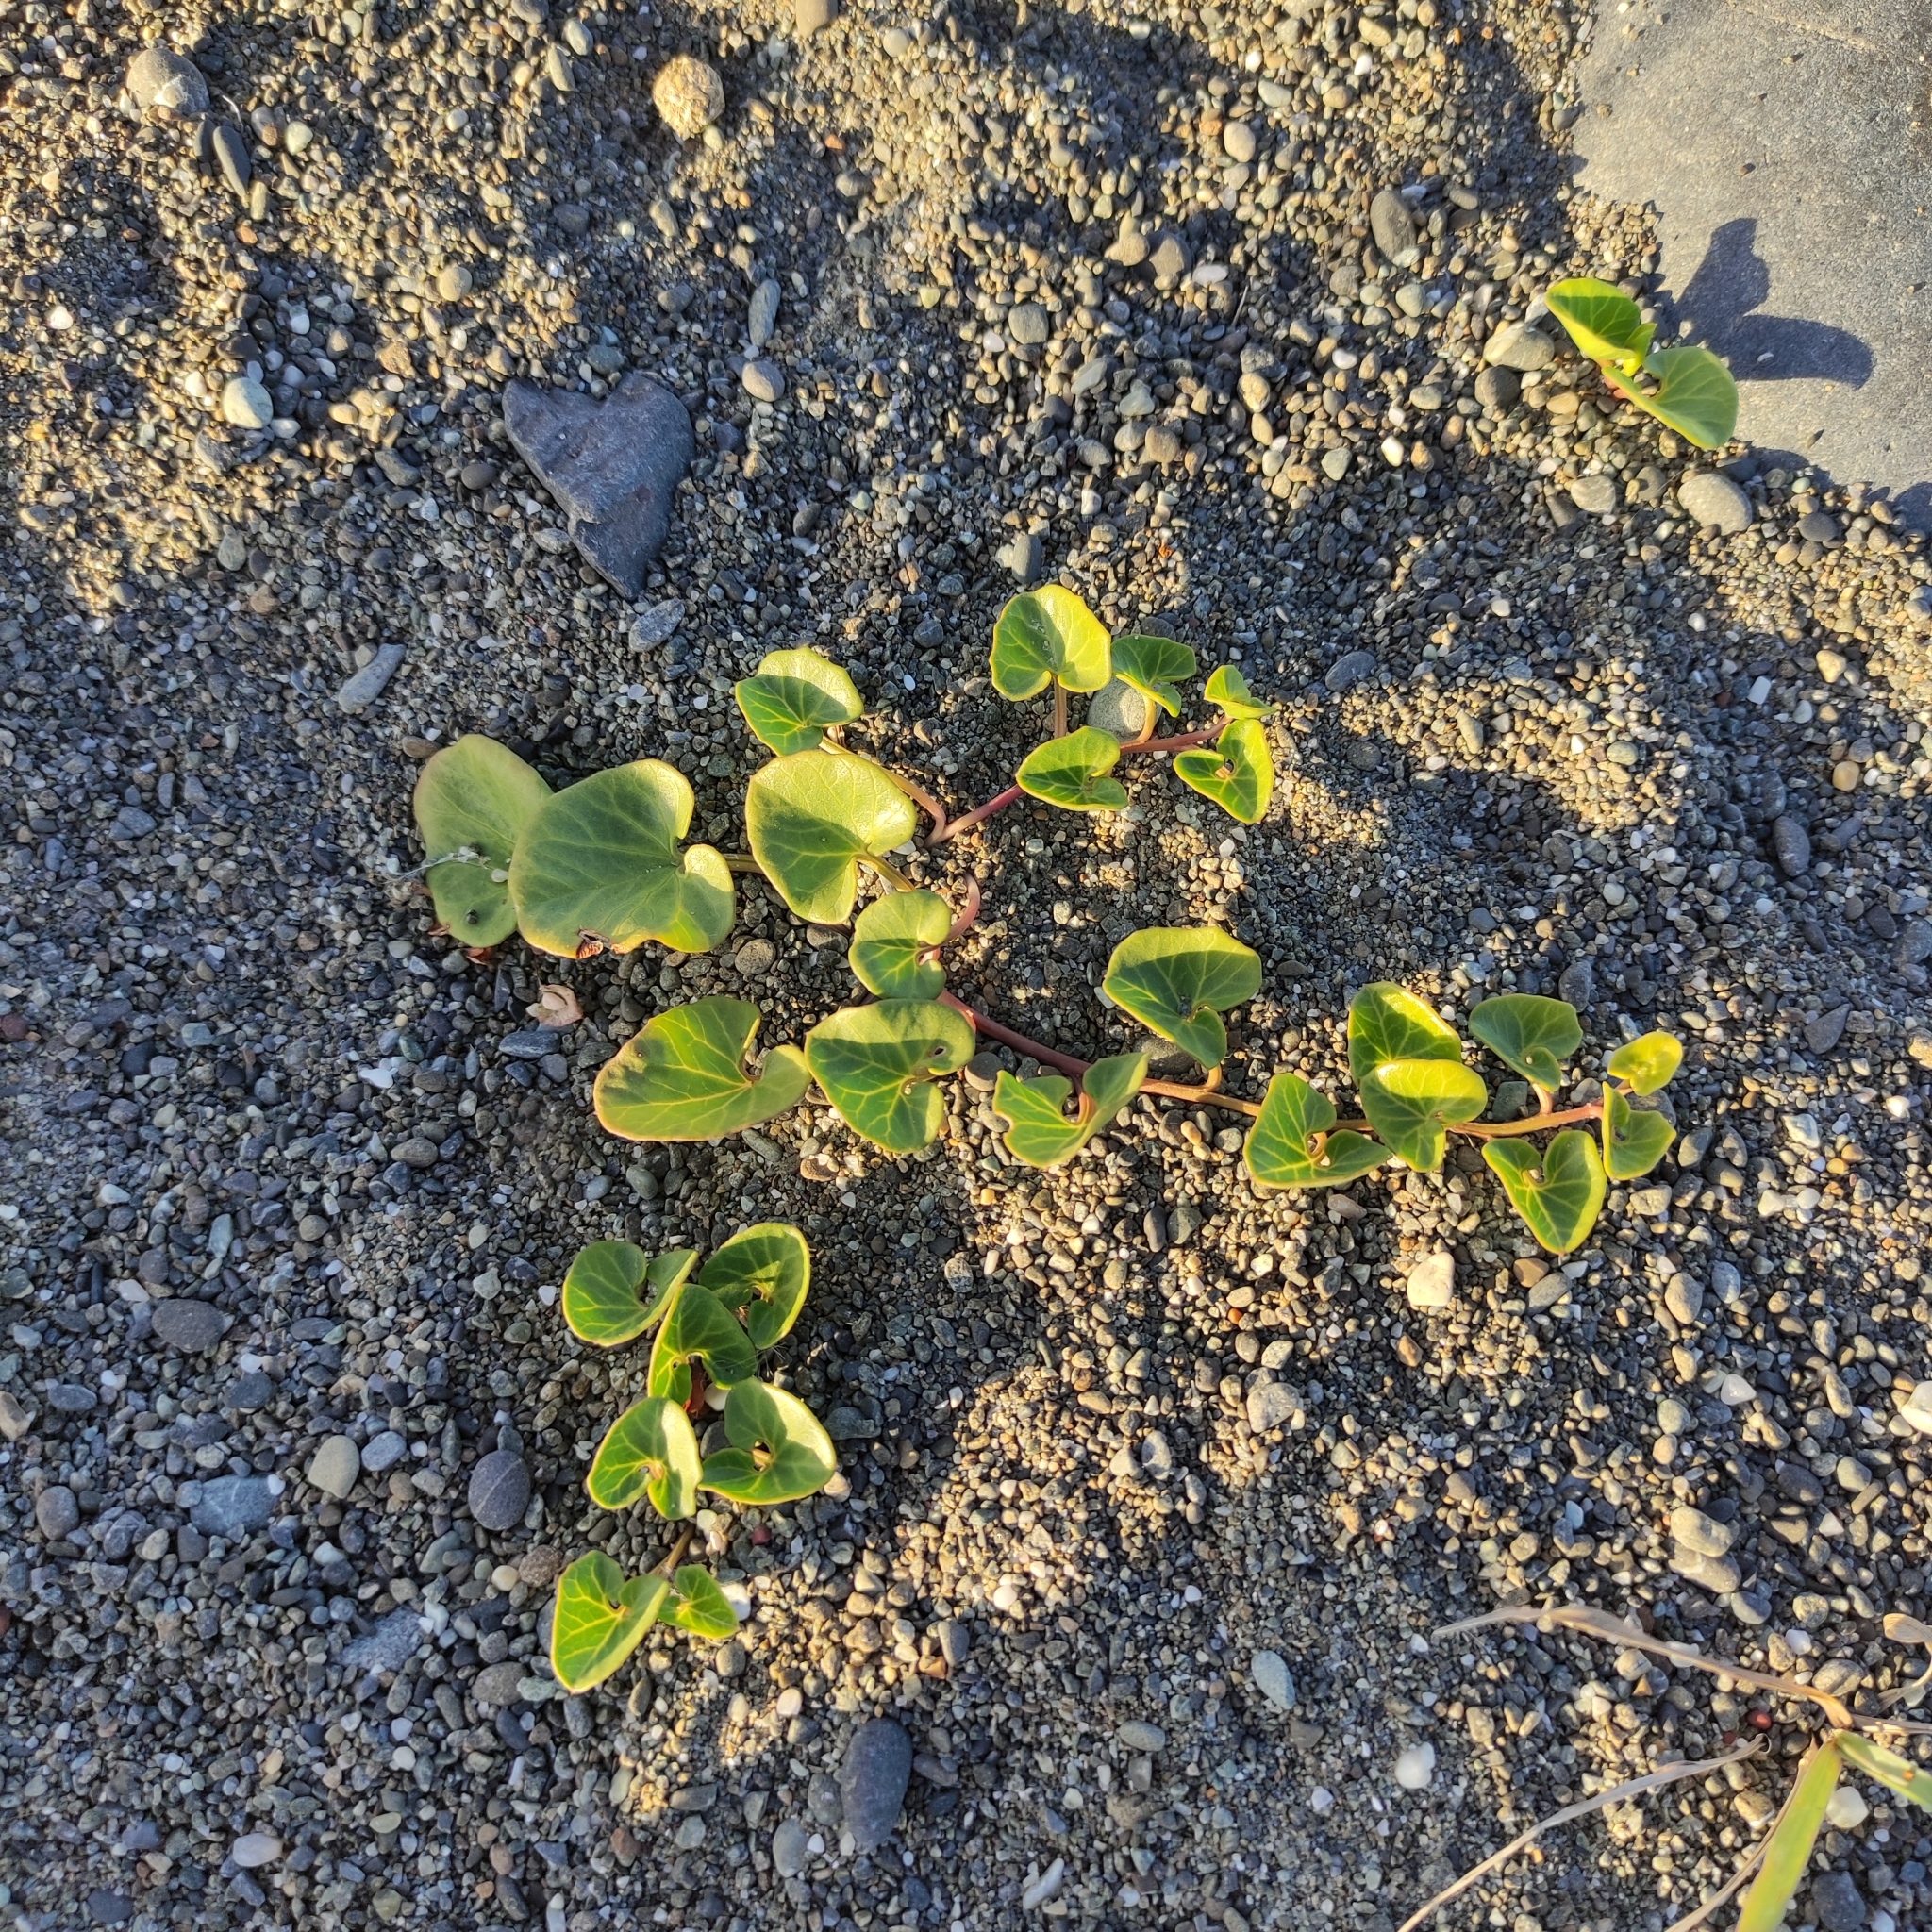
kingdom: Plantae
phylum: Tracheophyta
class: Magnoliopsida
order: Solanales
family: Convolvulaceae
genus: Calystegia
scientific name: Calystegia soldanella
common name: Sea bindweed
